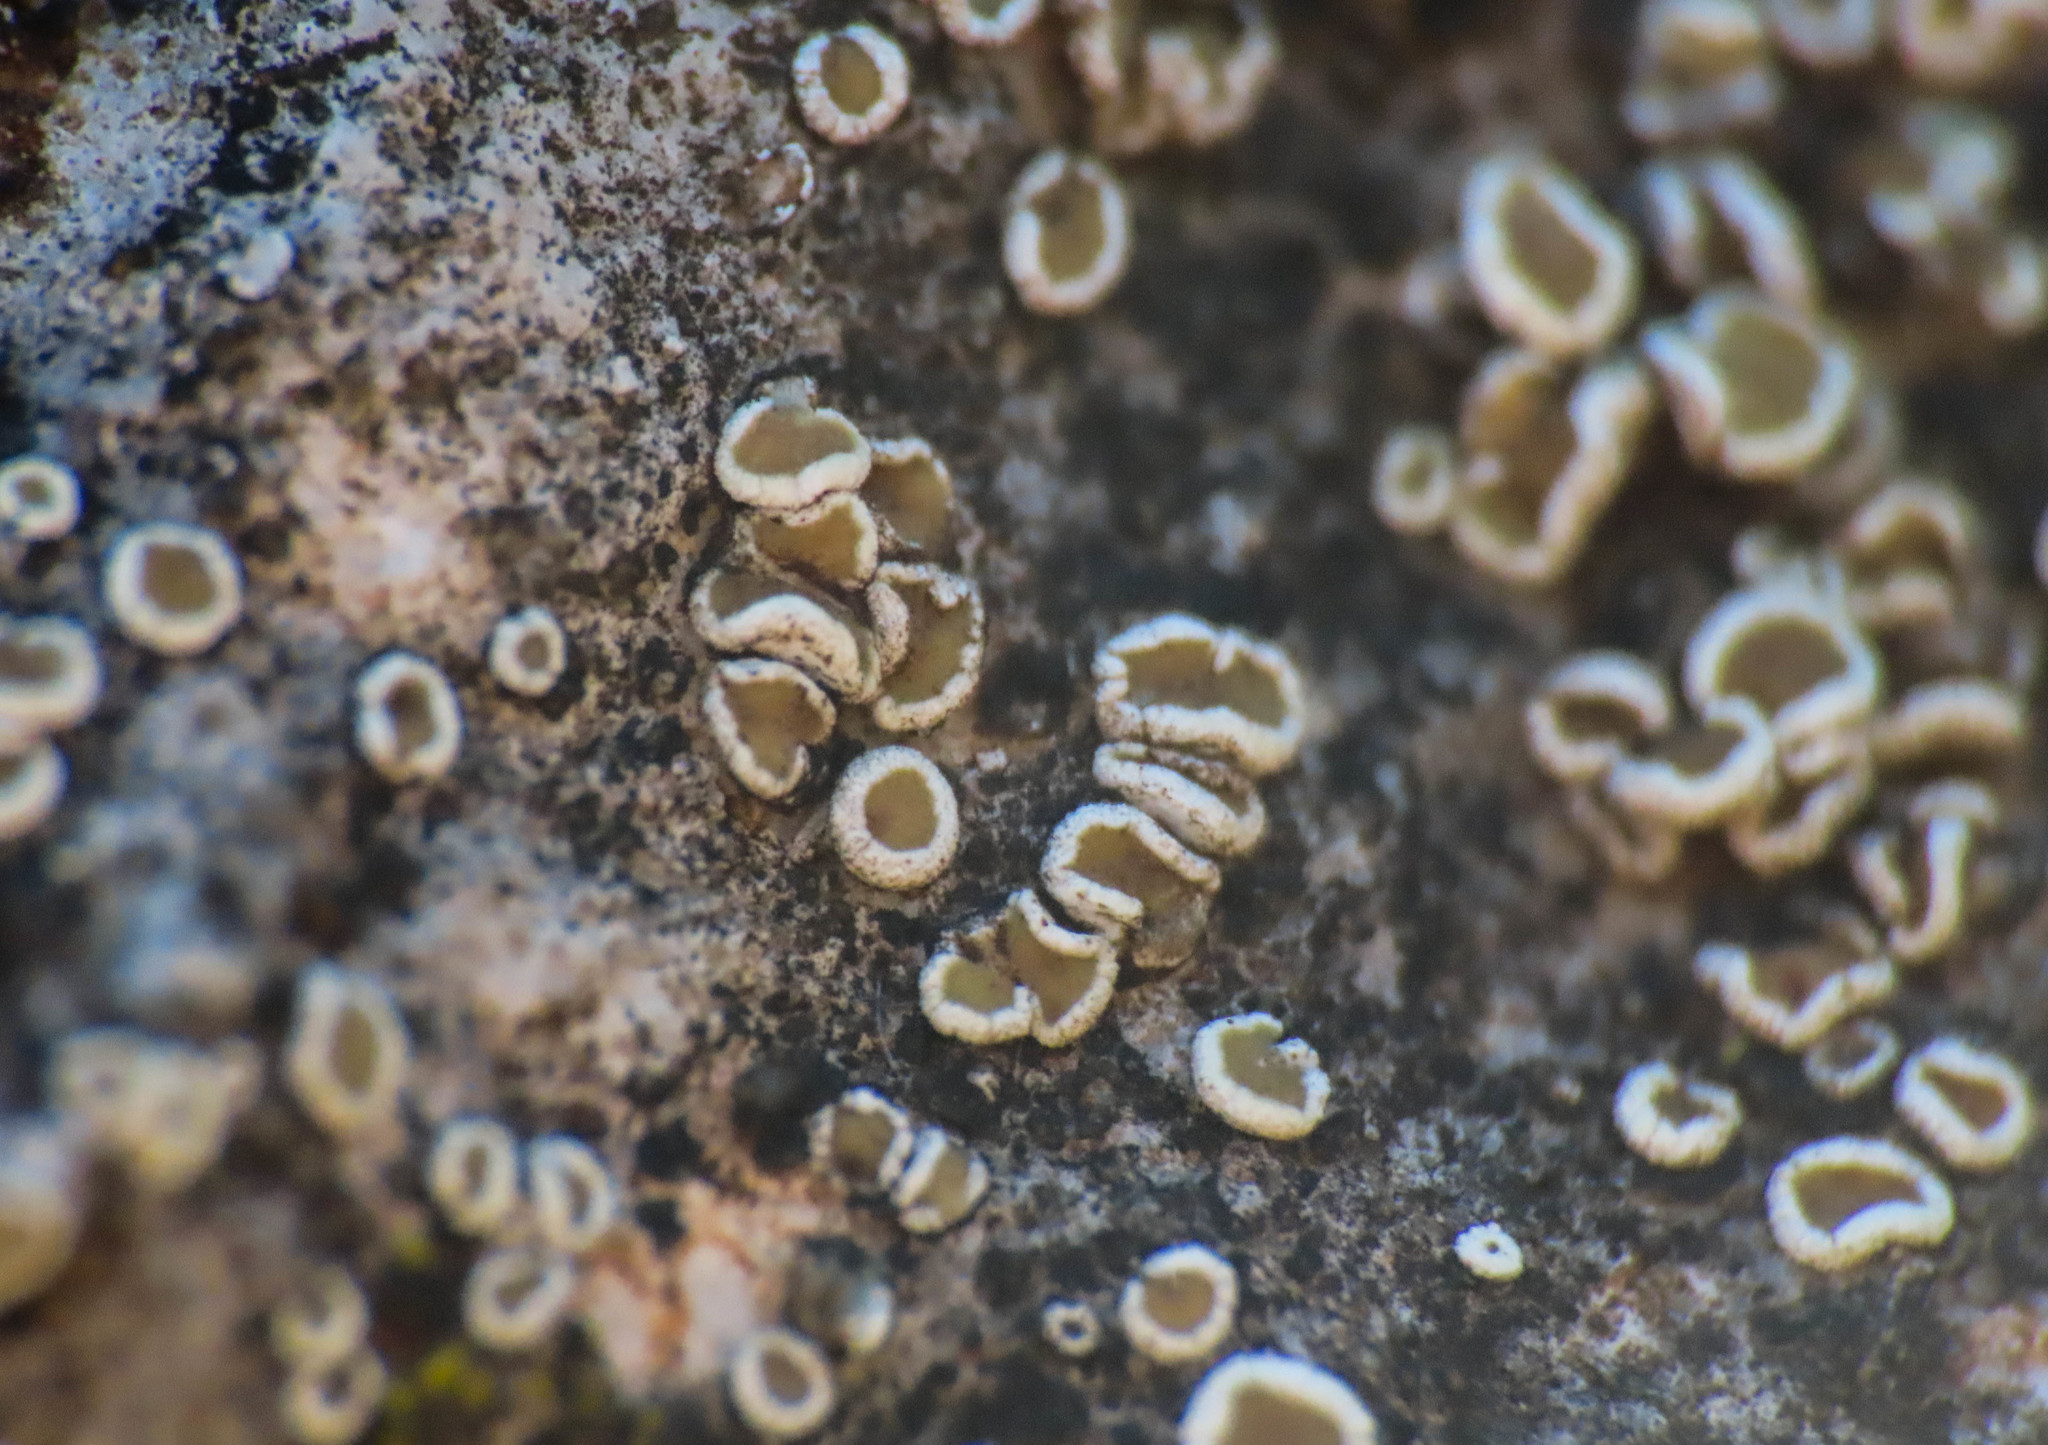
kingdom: Fungi
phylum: Ascomycota
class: Lecanoromycetes
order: Lecanorales
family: Lecanoraceae
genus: Polyozosia
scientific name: Polyozosia semipallida
